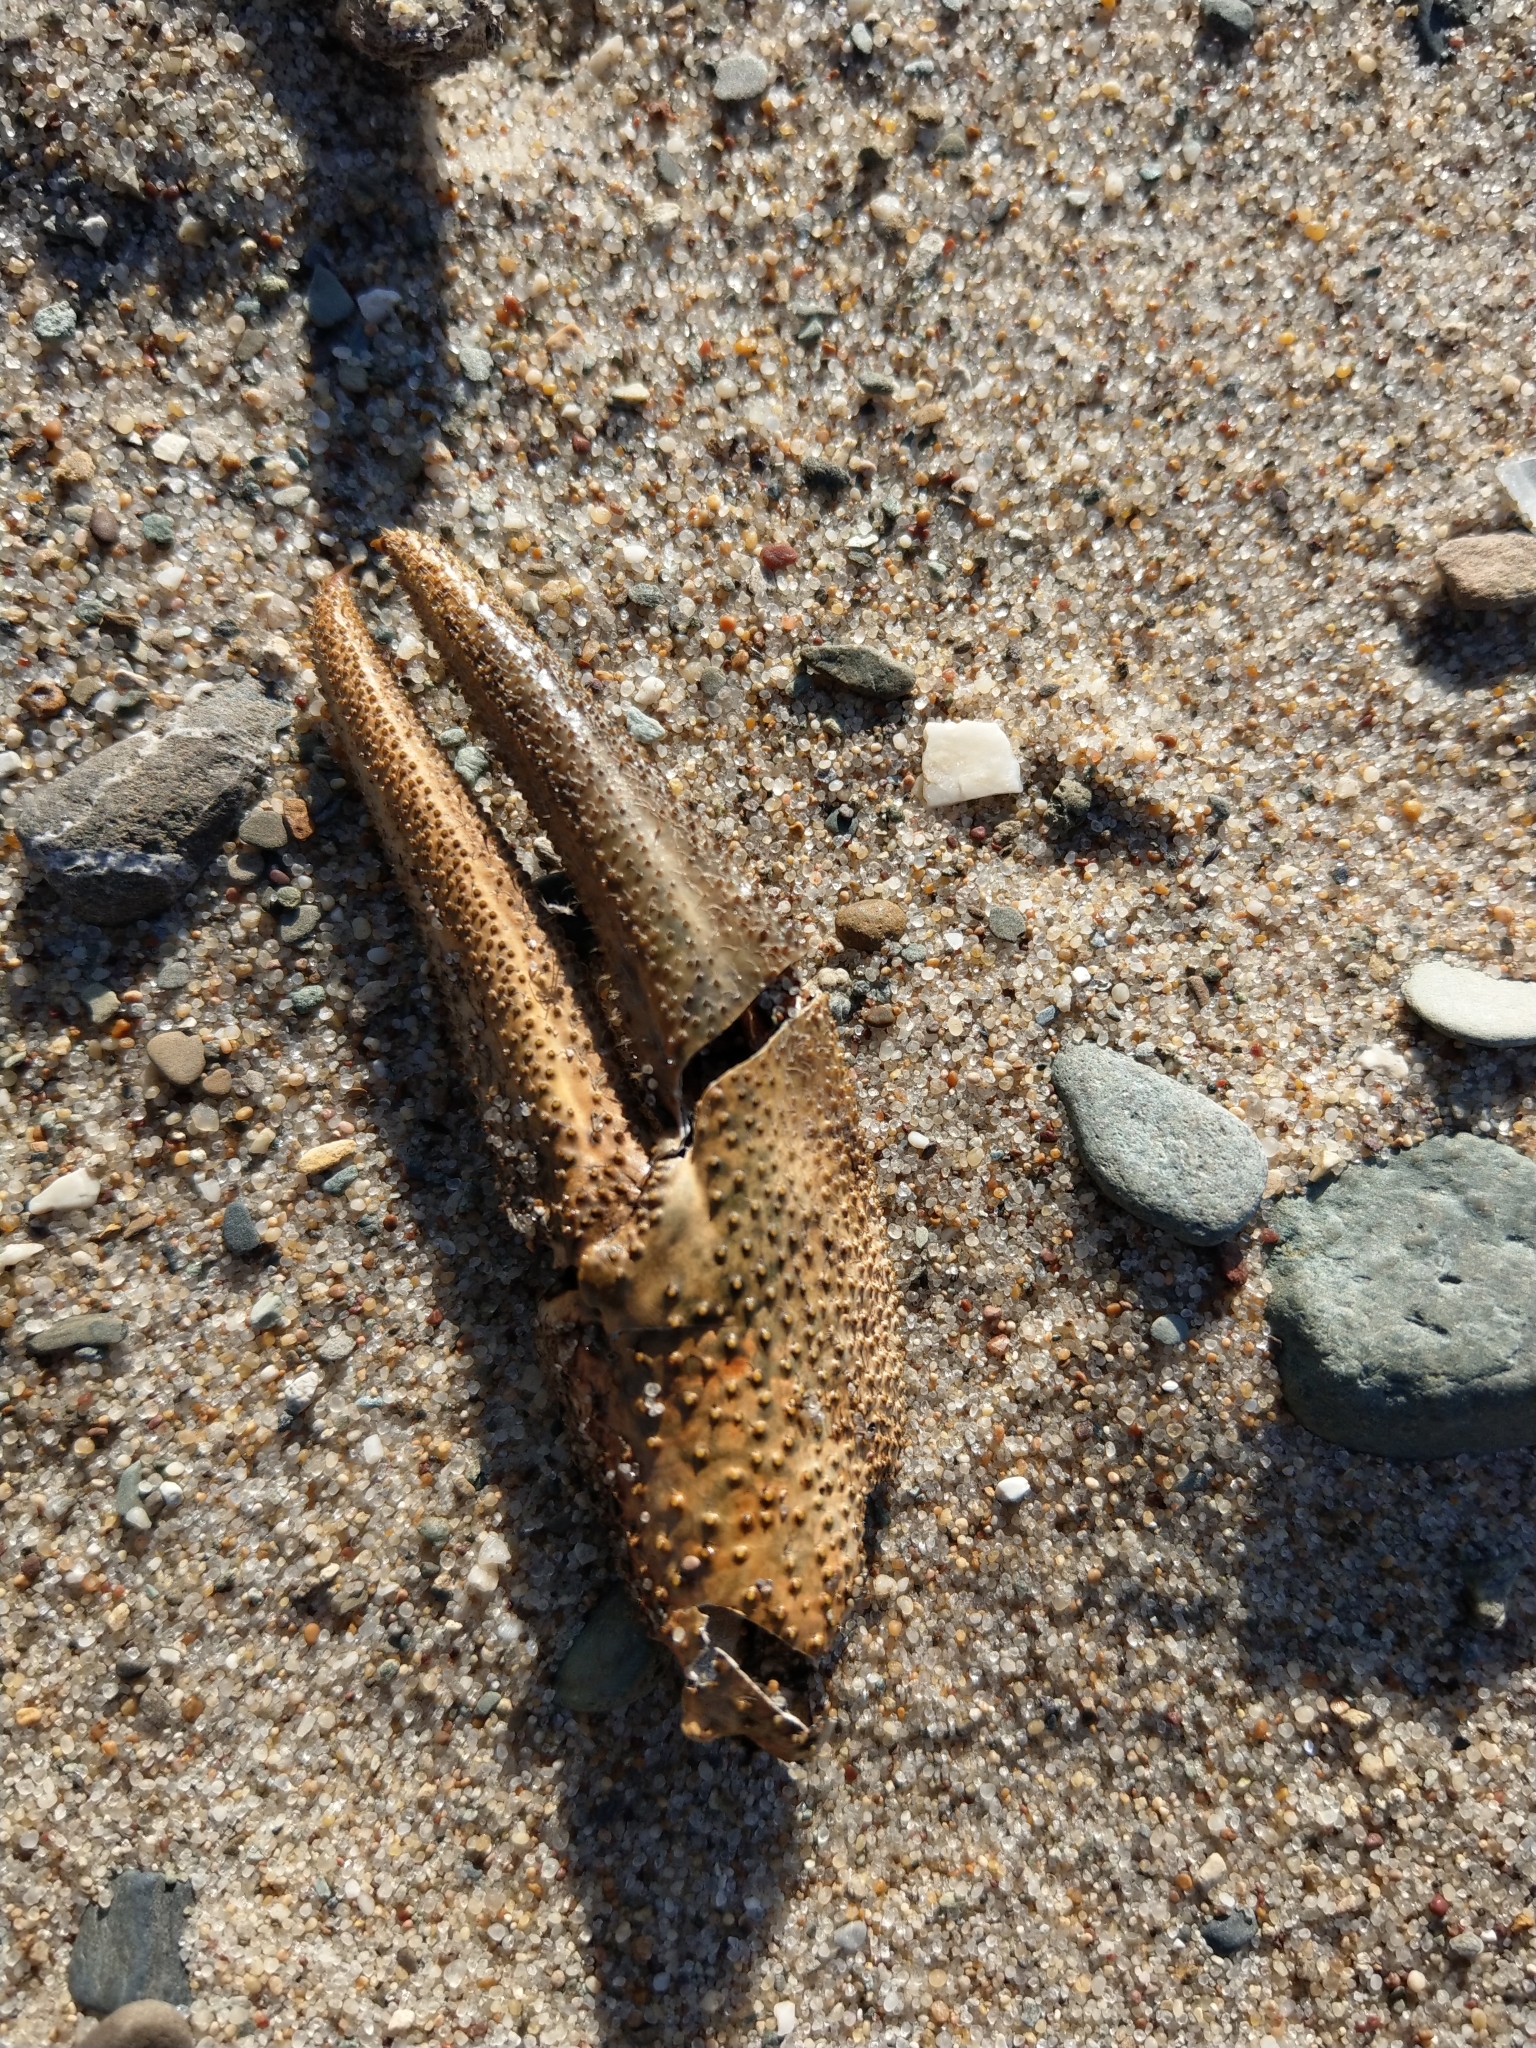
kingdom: Animalia
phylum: Arthropoda
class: Malacostraca
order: Decapoda
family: Astacidae
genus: Pontastacus
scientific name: Pontastacus leptodactylus
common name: Danube crayfish
